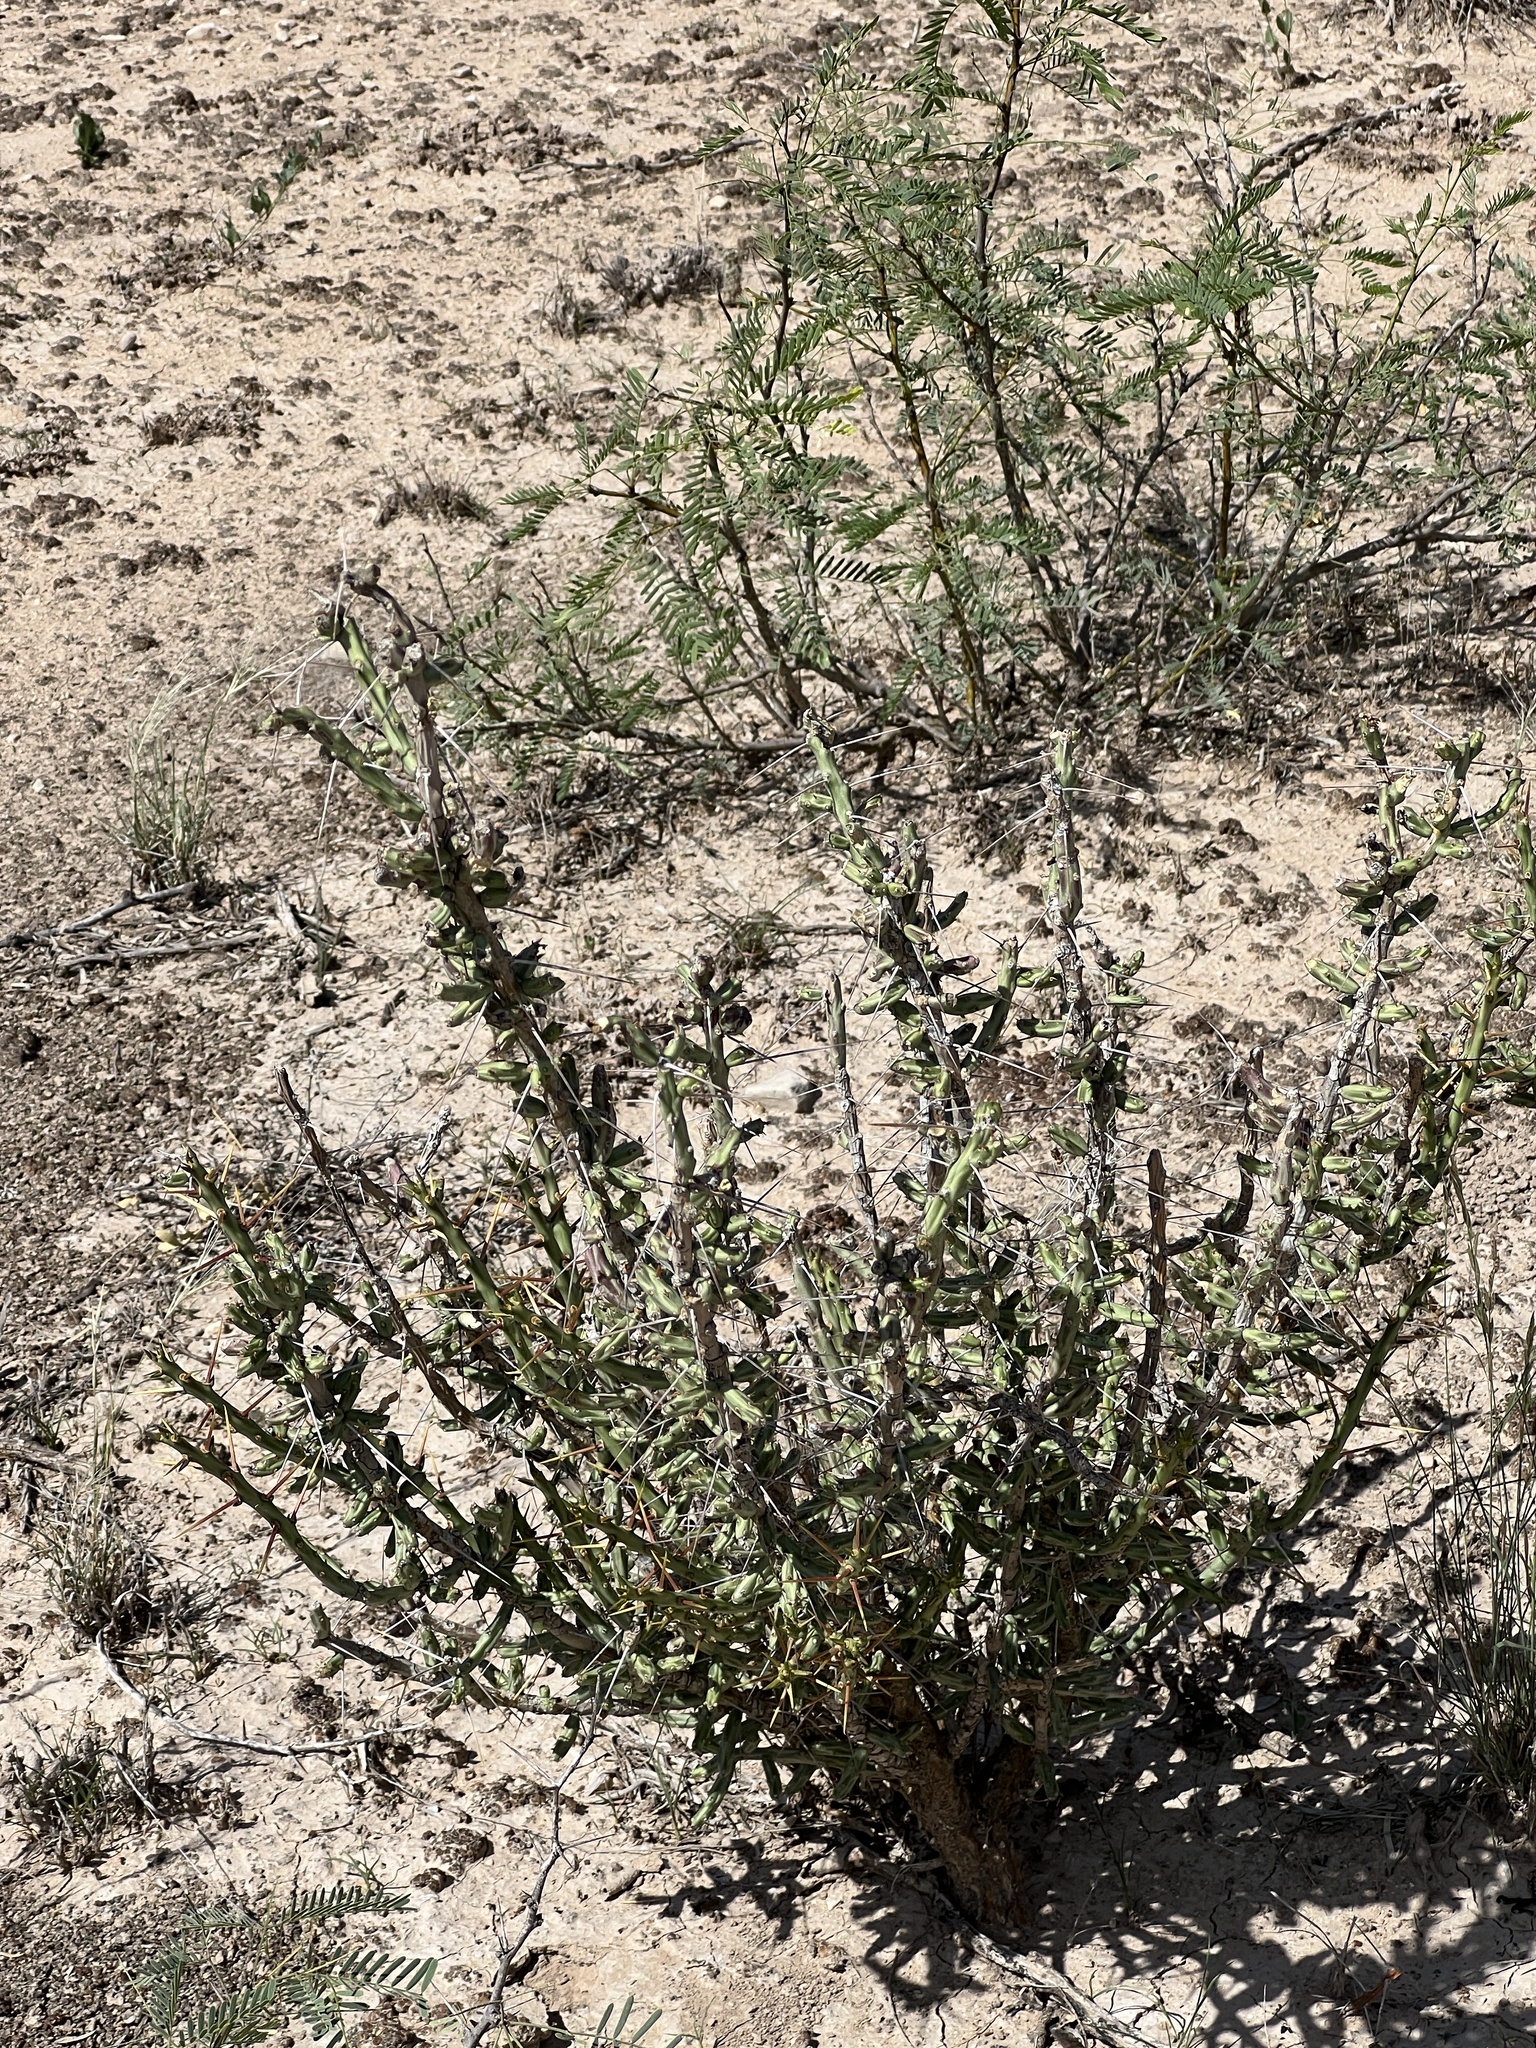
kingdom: Plantae
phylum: Tracheophyta
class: Magnoliopsida
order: Caryophyllales
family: Cactaceae
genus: Cylindropuntia
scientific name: Cylindropuntia leptocaulis
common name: Christmas cactus
